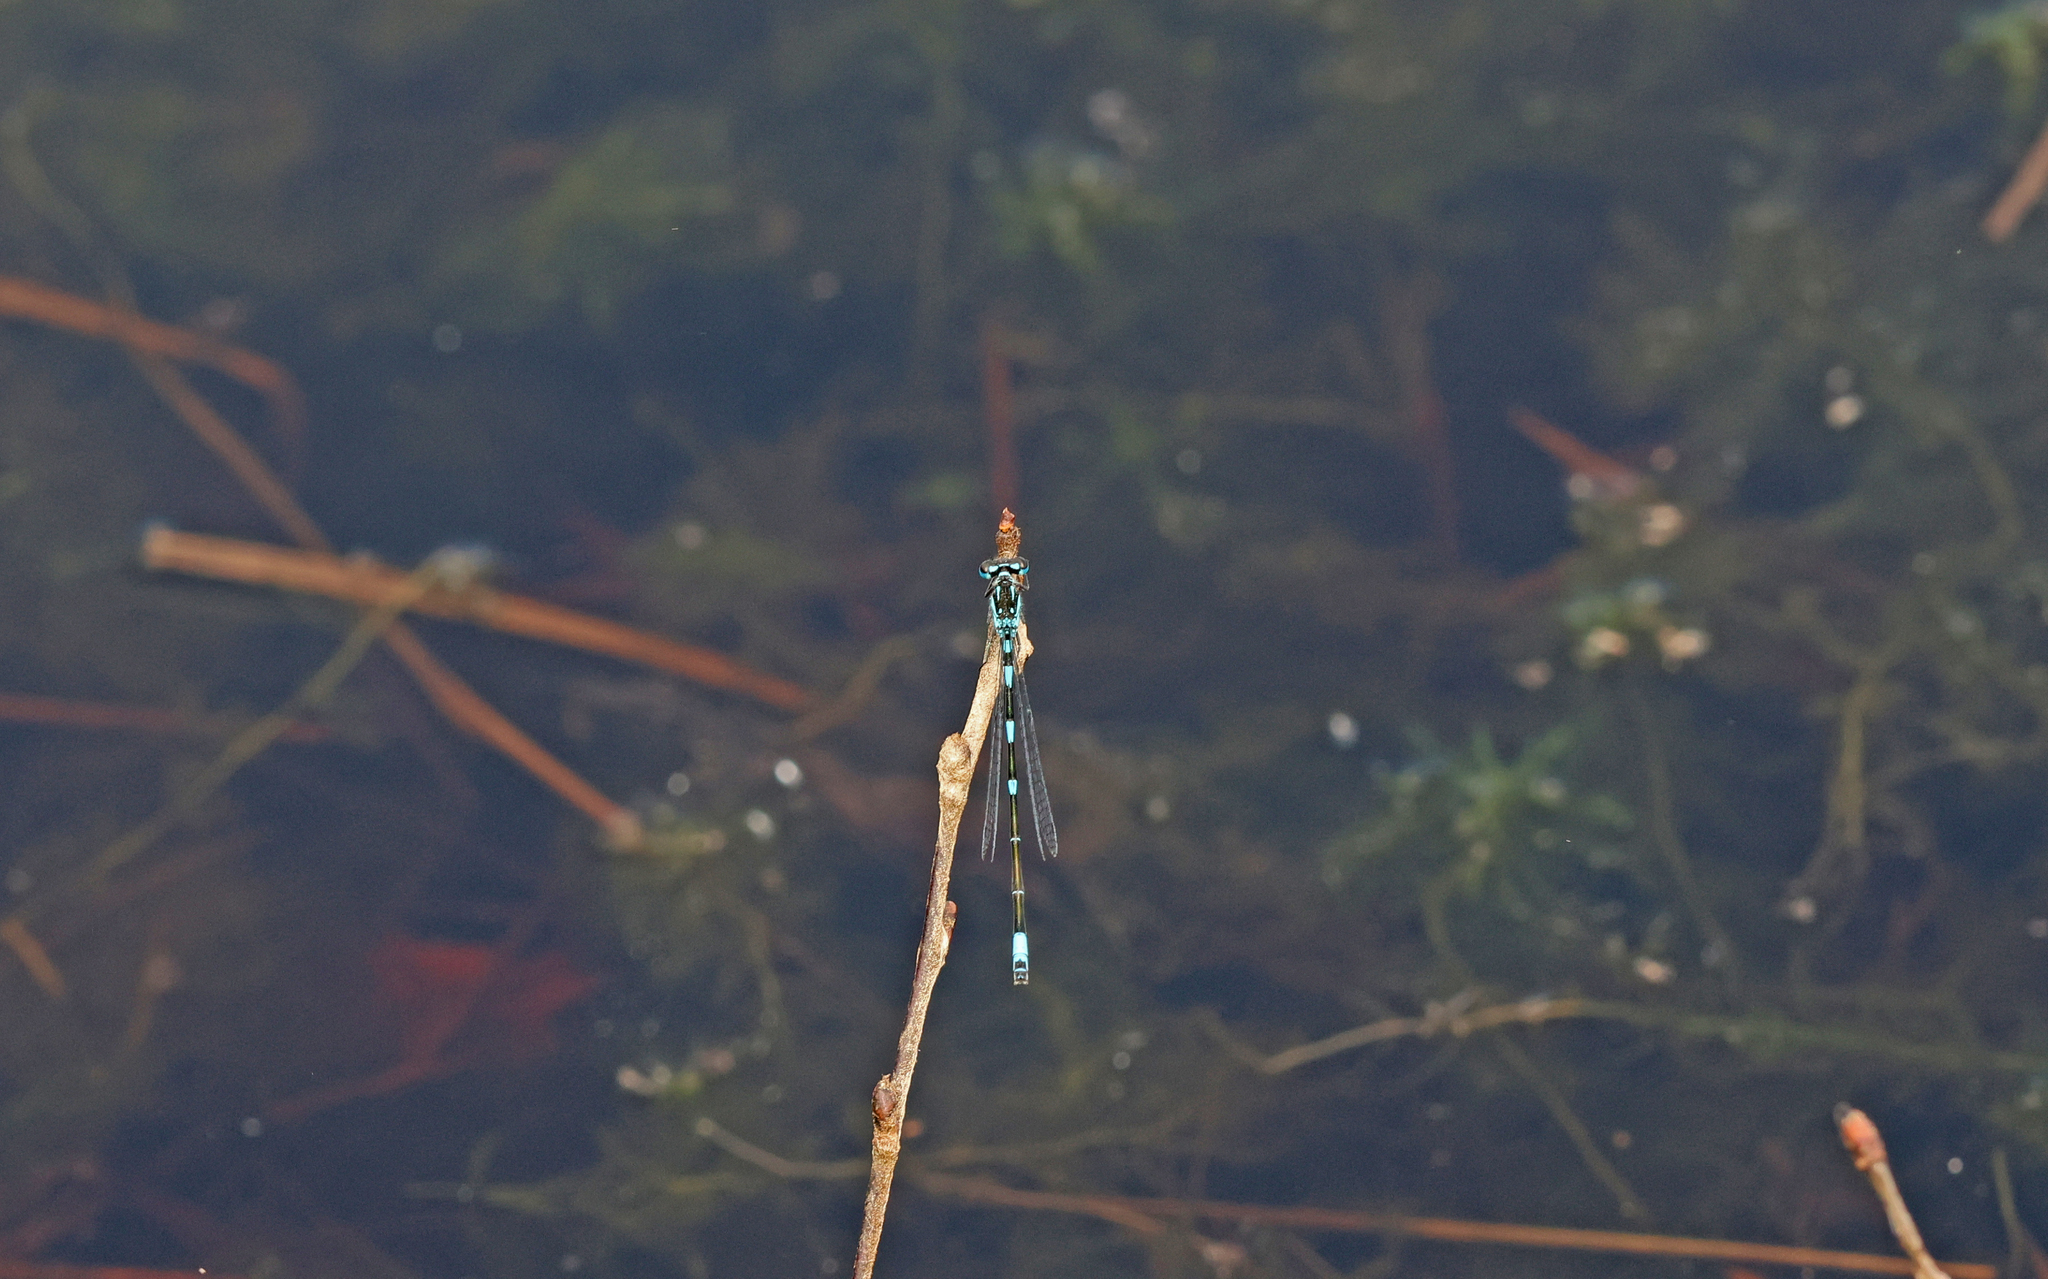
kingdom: Animalia
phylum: Arthropoda
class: Insecta
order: Odonata
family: Coenagrionidae
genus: Coenagrion
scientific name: Coenagrion pulchellum
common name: Variable bluet
